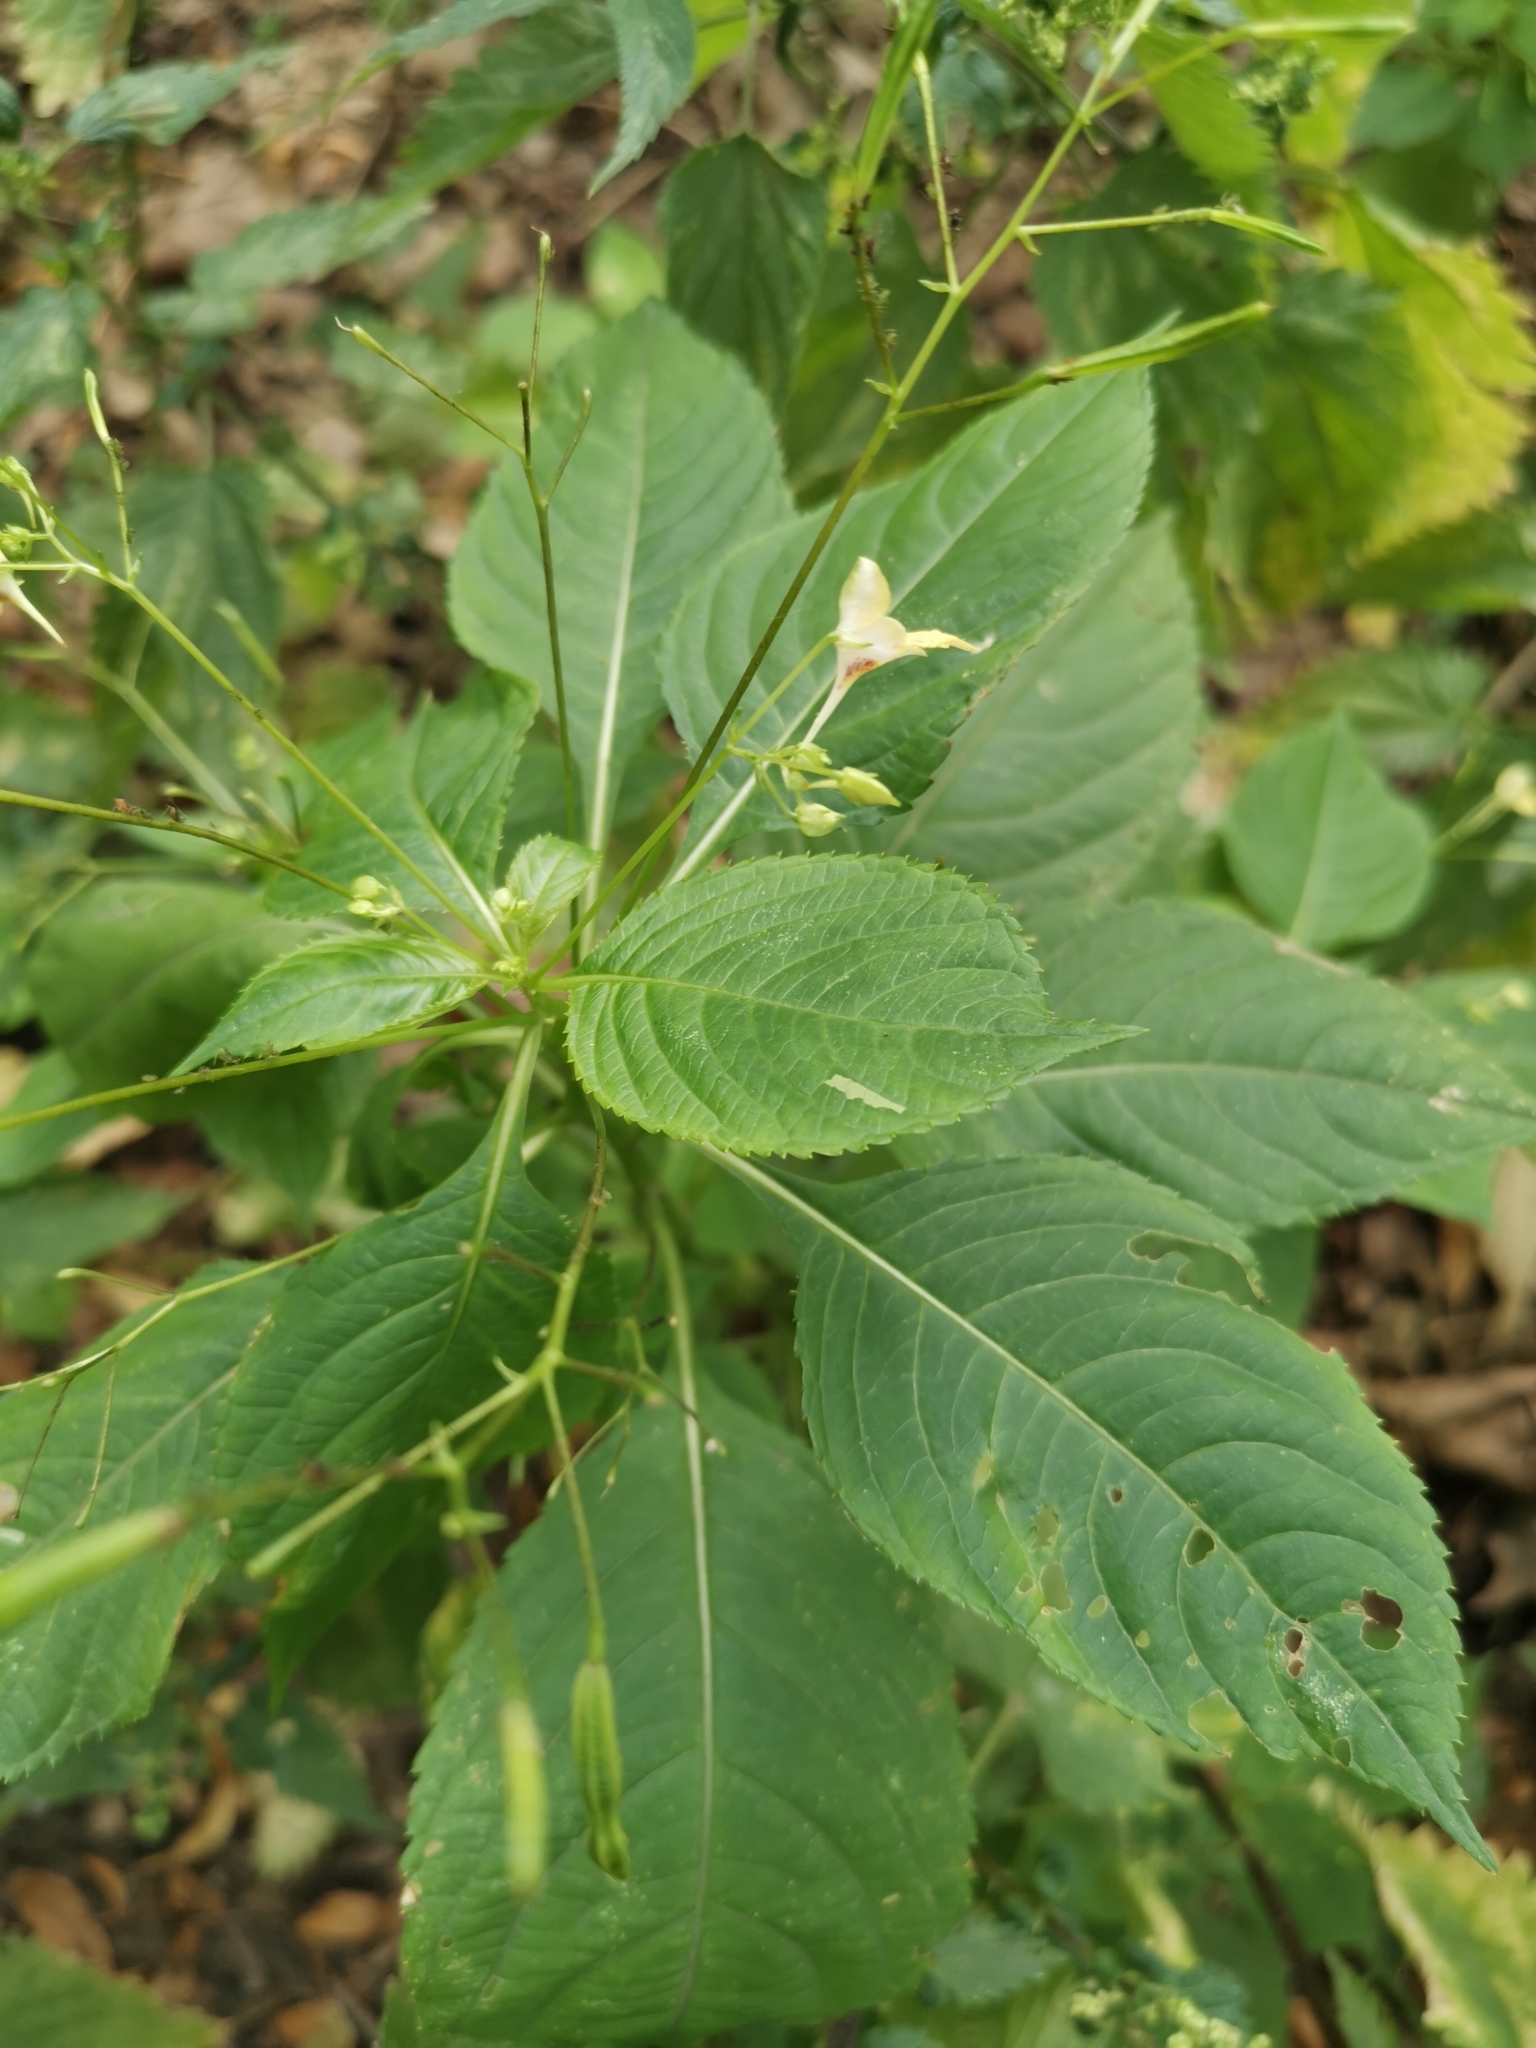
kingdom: Plantae
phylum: Tracheophyta
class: Magnoliopsida
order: Ericales
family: Balsaminaceae
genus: Impatiens
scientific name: Impatiens parviflora
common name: Small balsam
